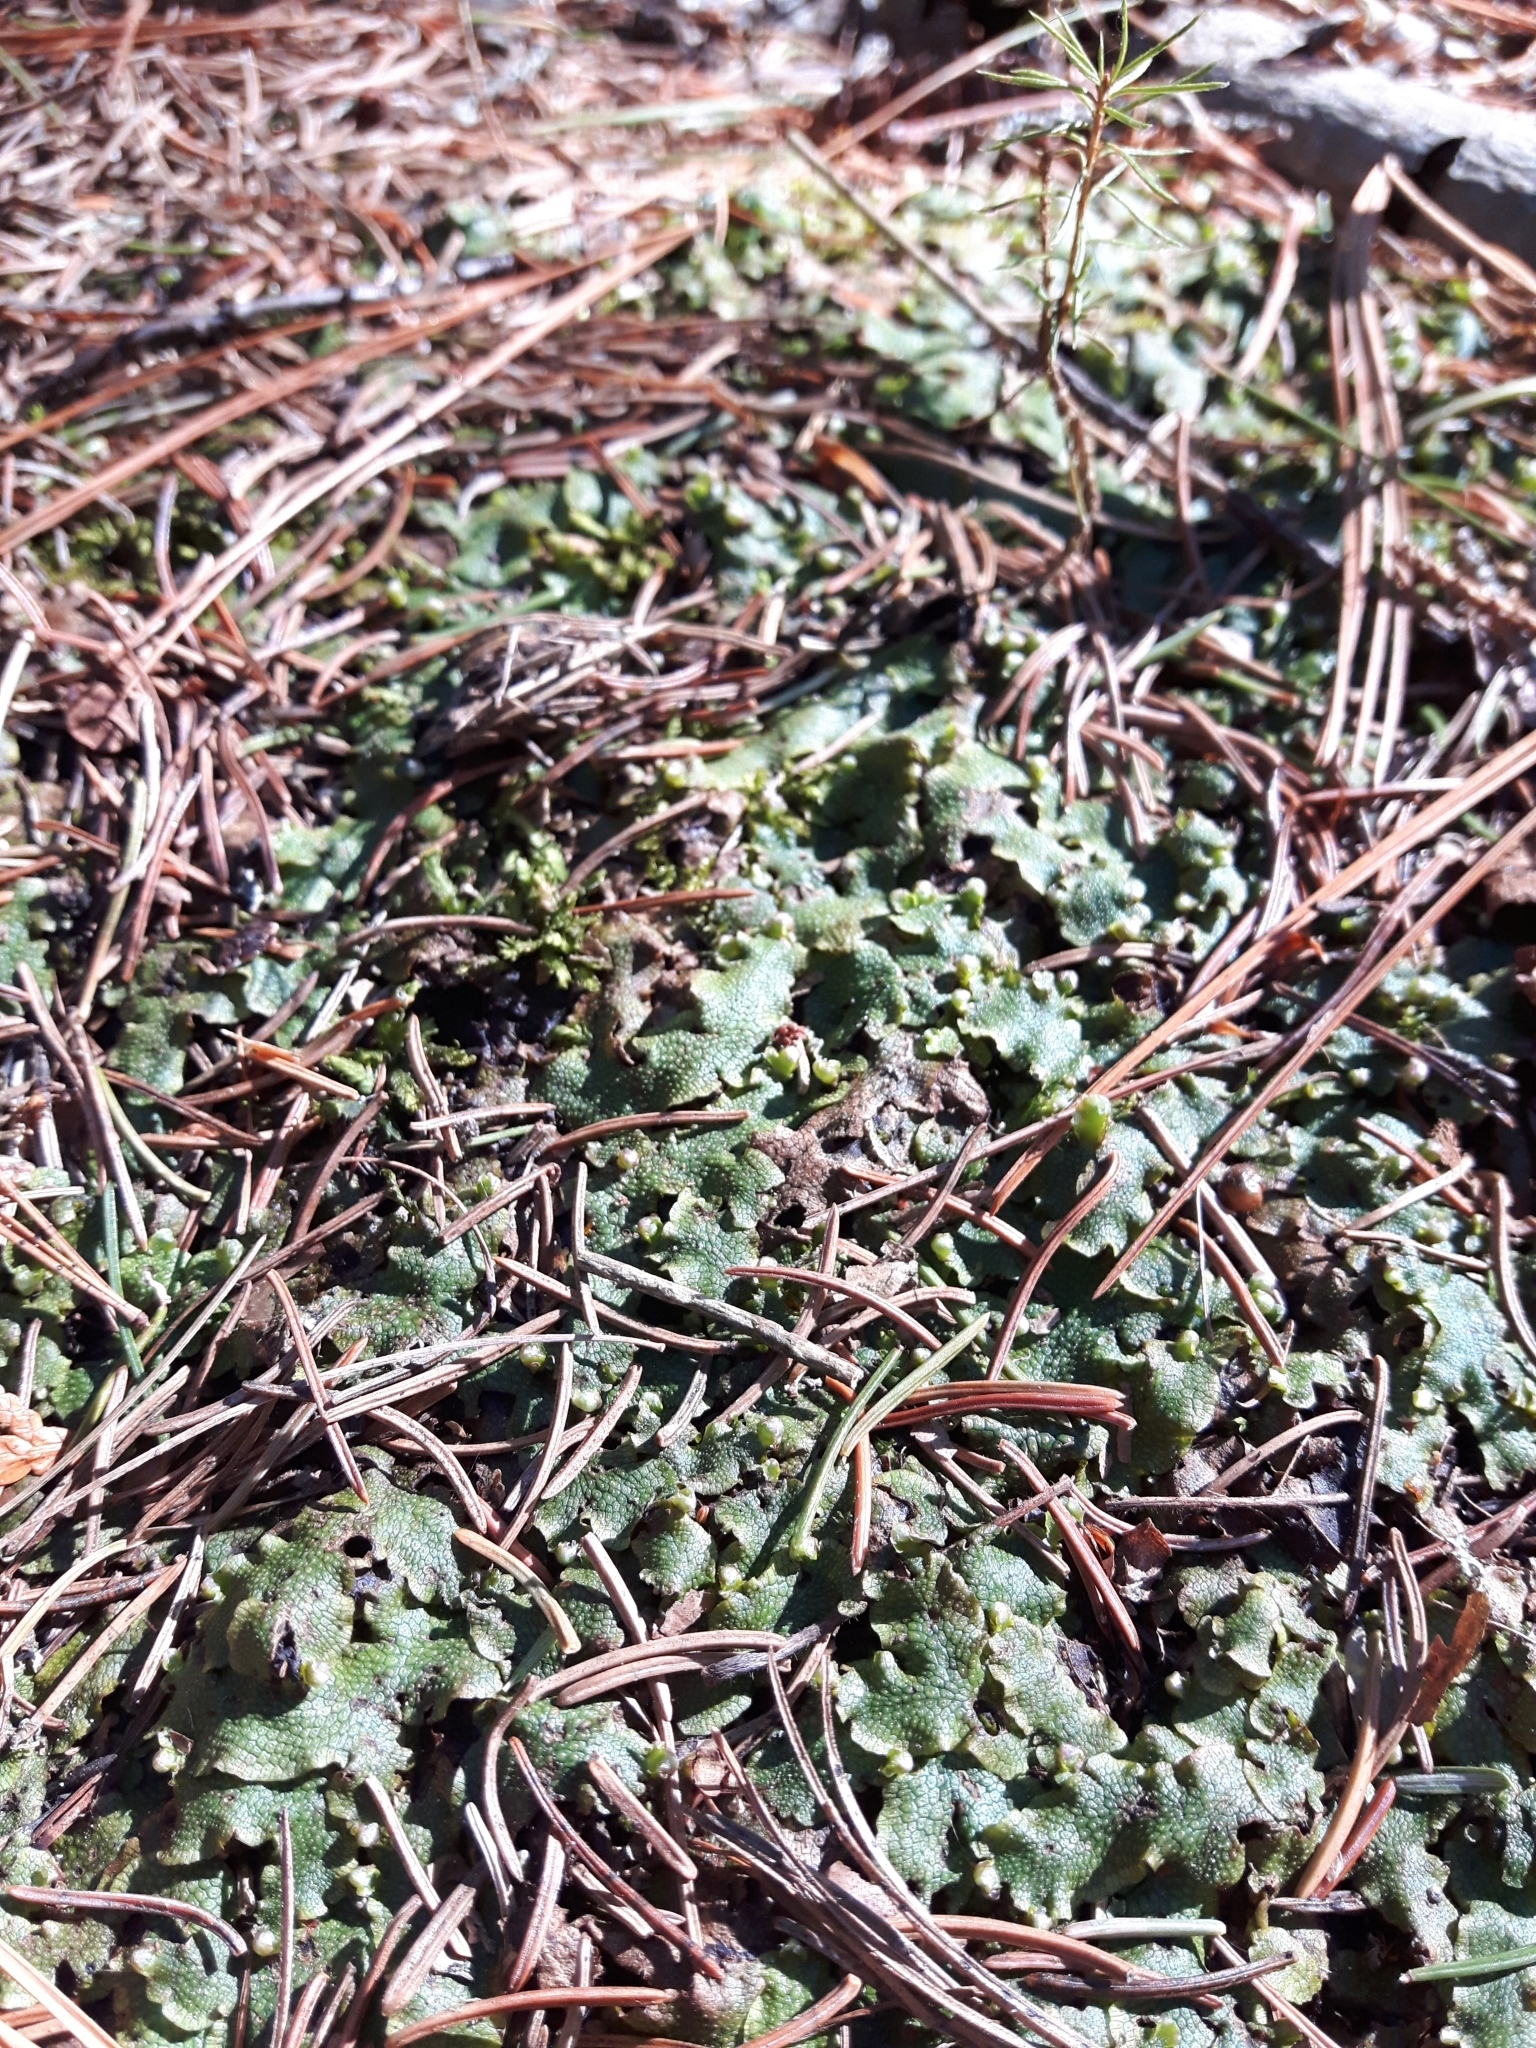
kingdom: Plantae
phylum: Marchantiophyta
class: Marchantiopsida
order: Marchantiales
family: Conocephalaceae
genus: Conocephalum
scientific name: Conocephalum salebrosum
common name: Cat-tongue liverwort
